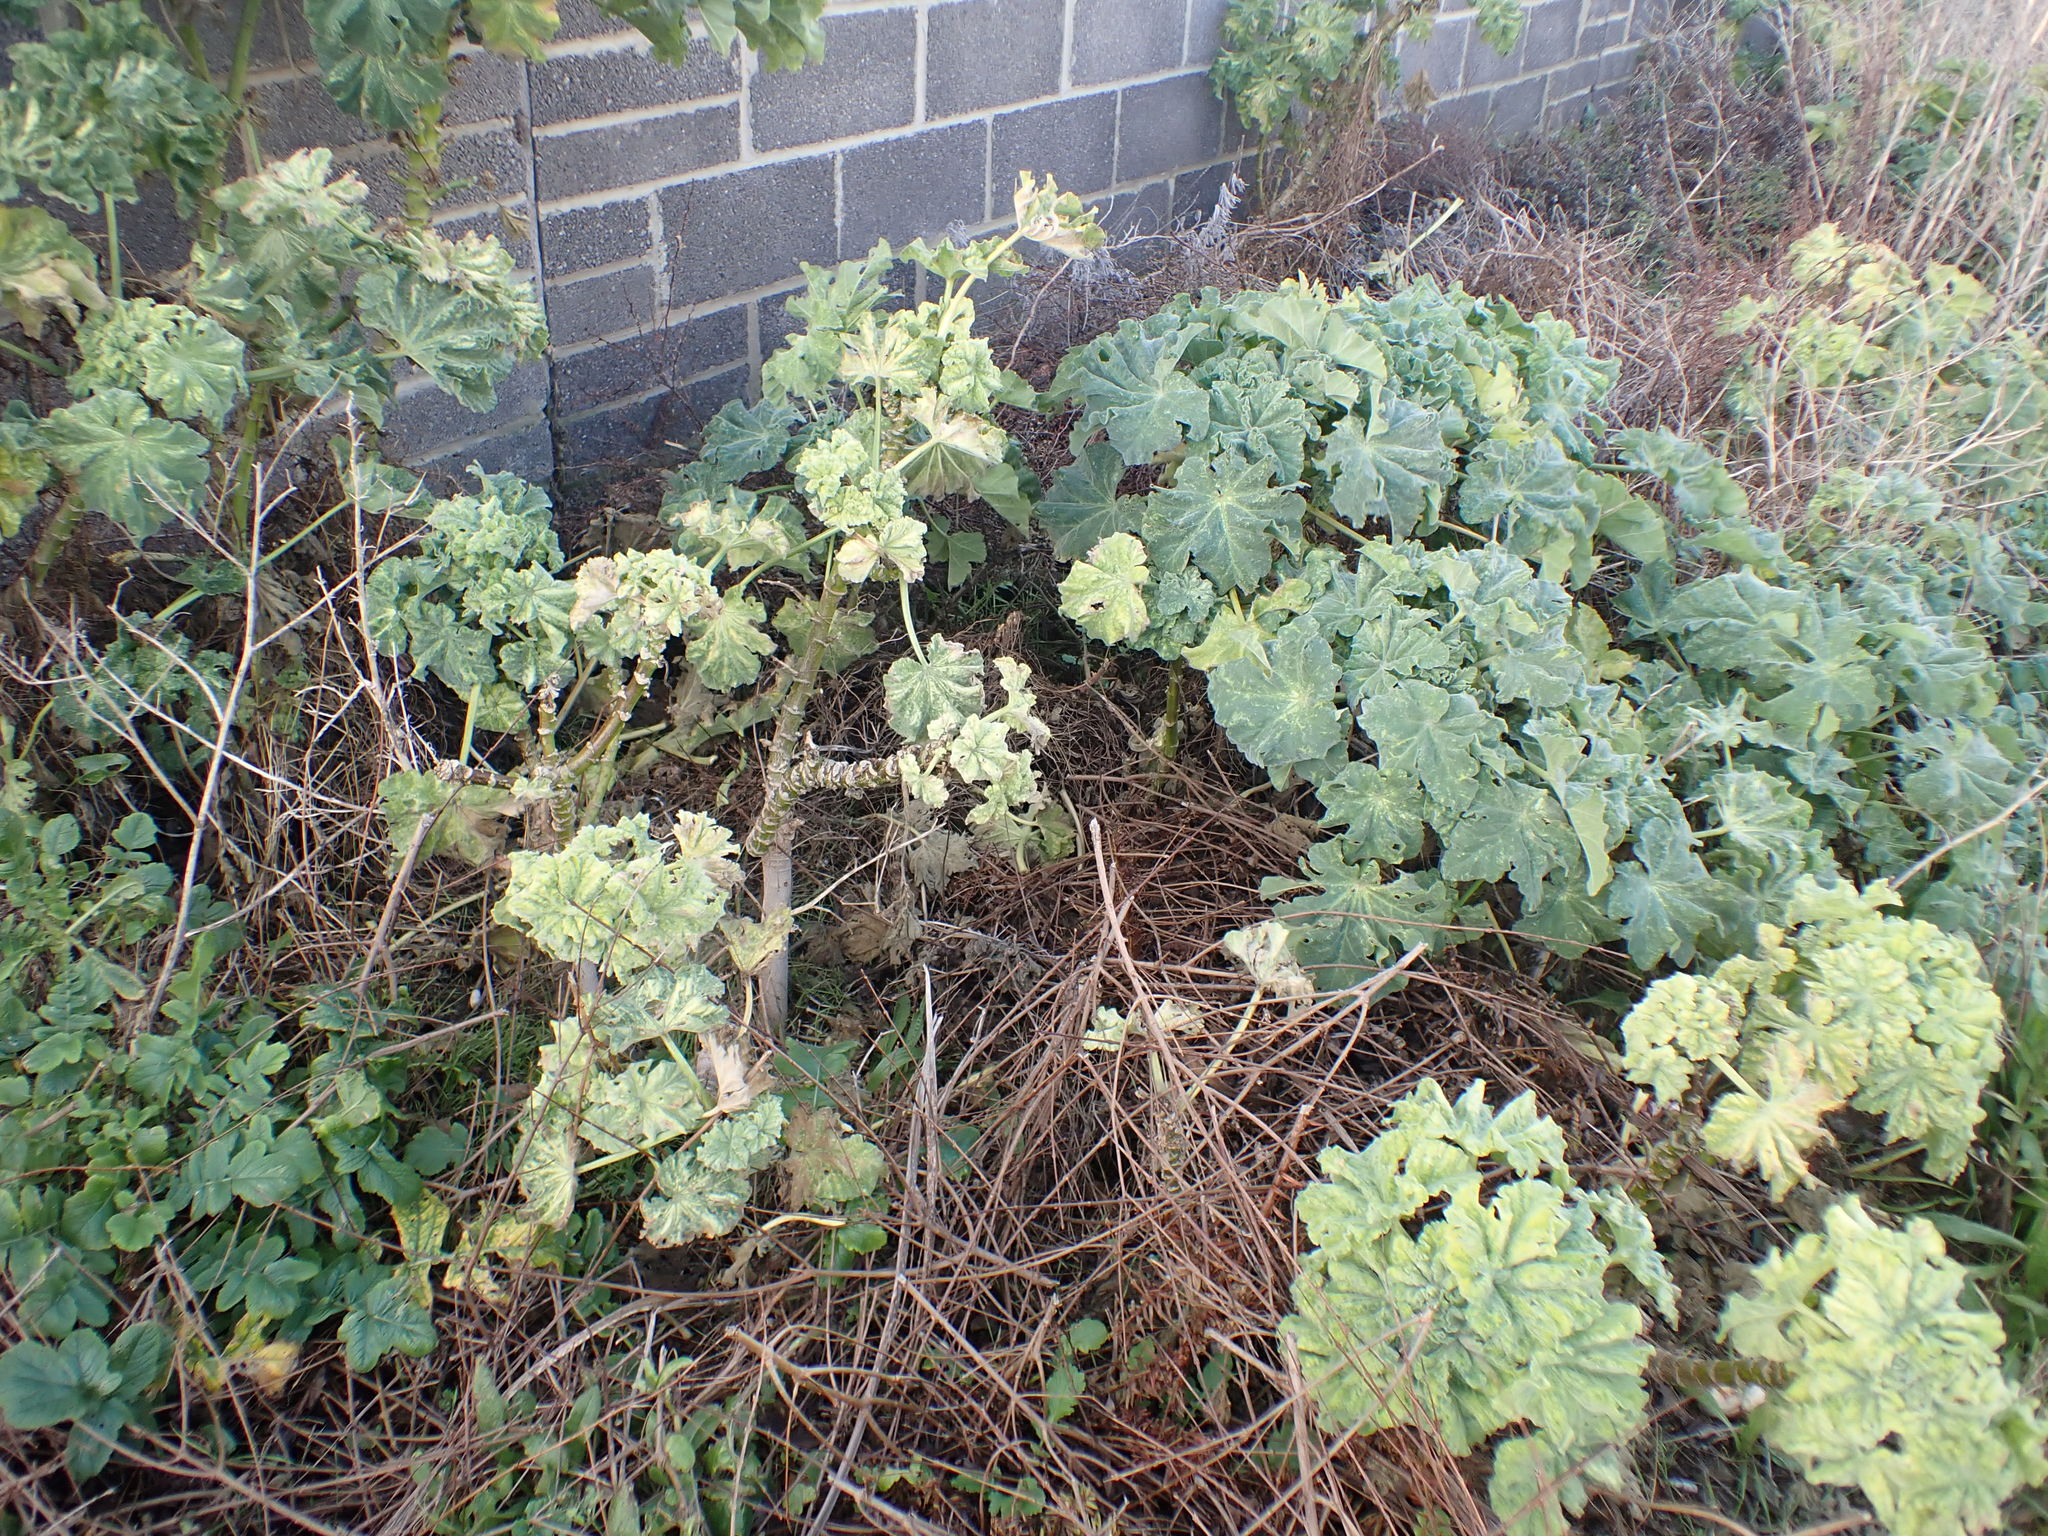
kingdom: Plantae
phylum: Tracheophyta
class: Magnoliopsida
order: Malvales
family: Malvaceae
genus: Malva
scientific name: Malva arborea
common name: Tree mallow
